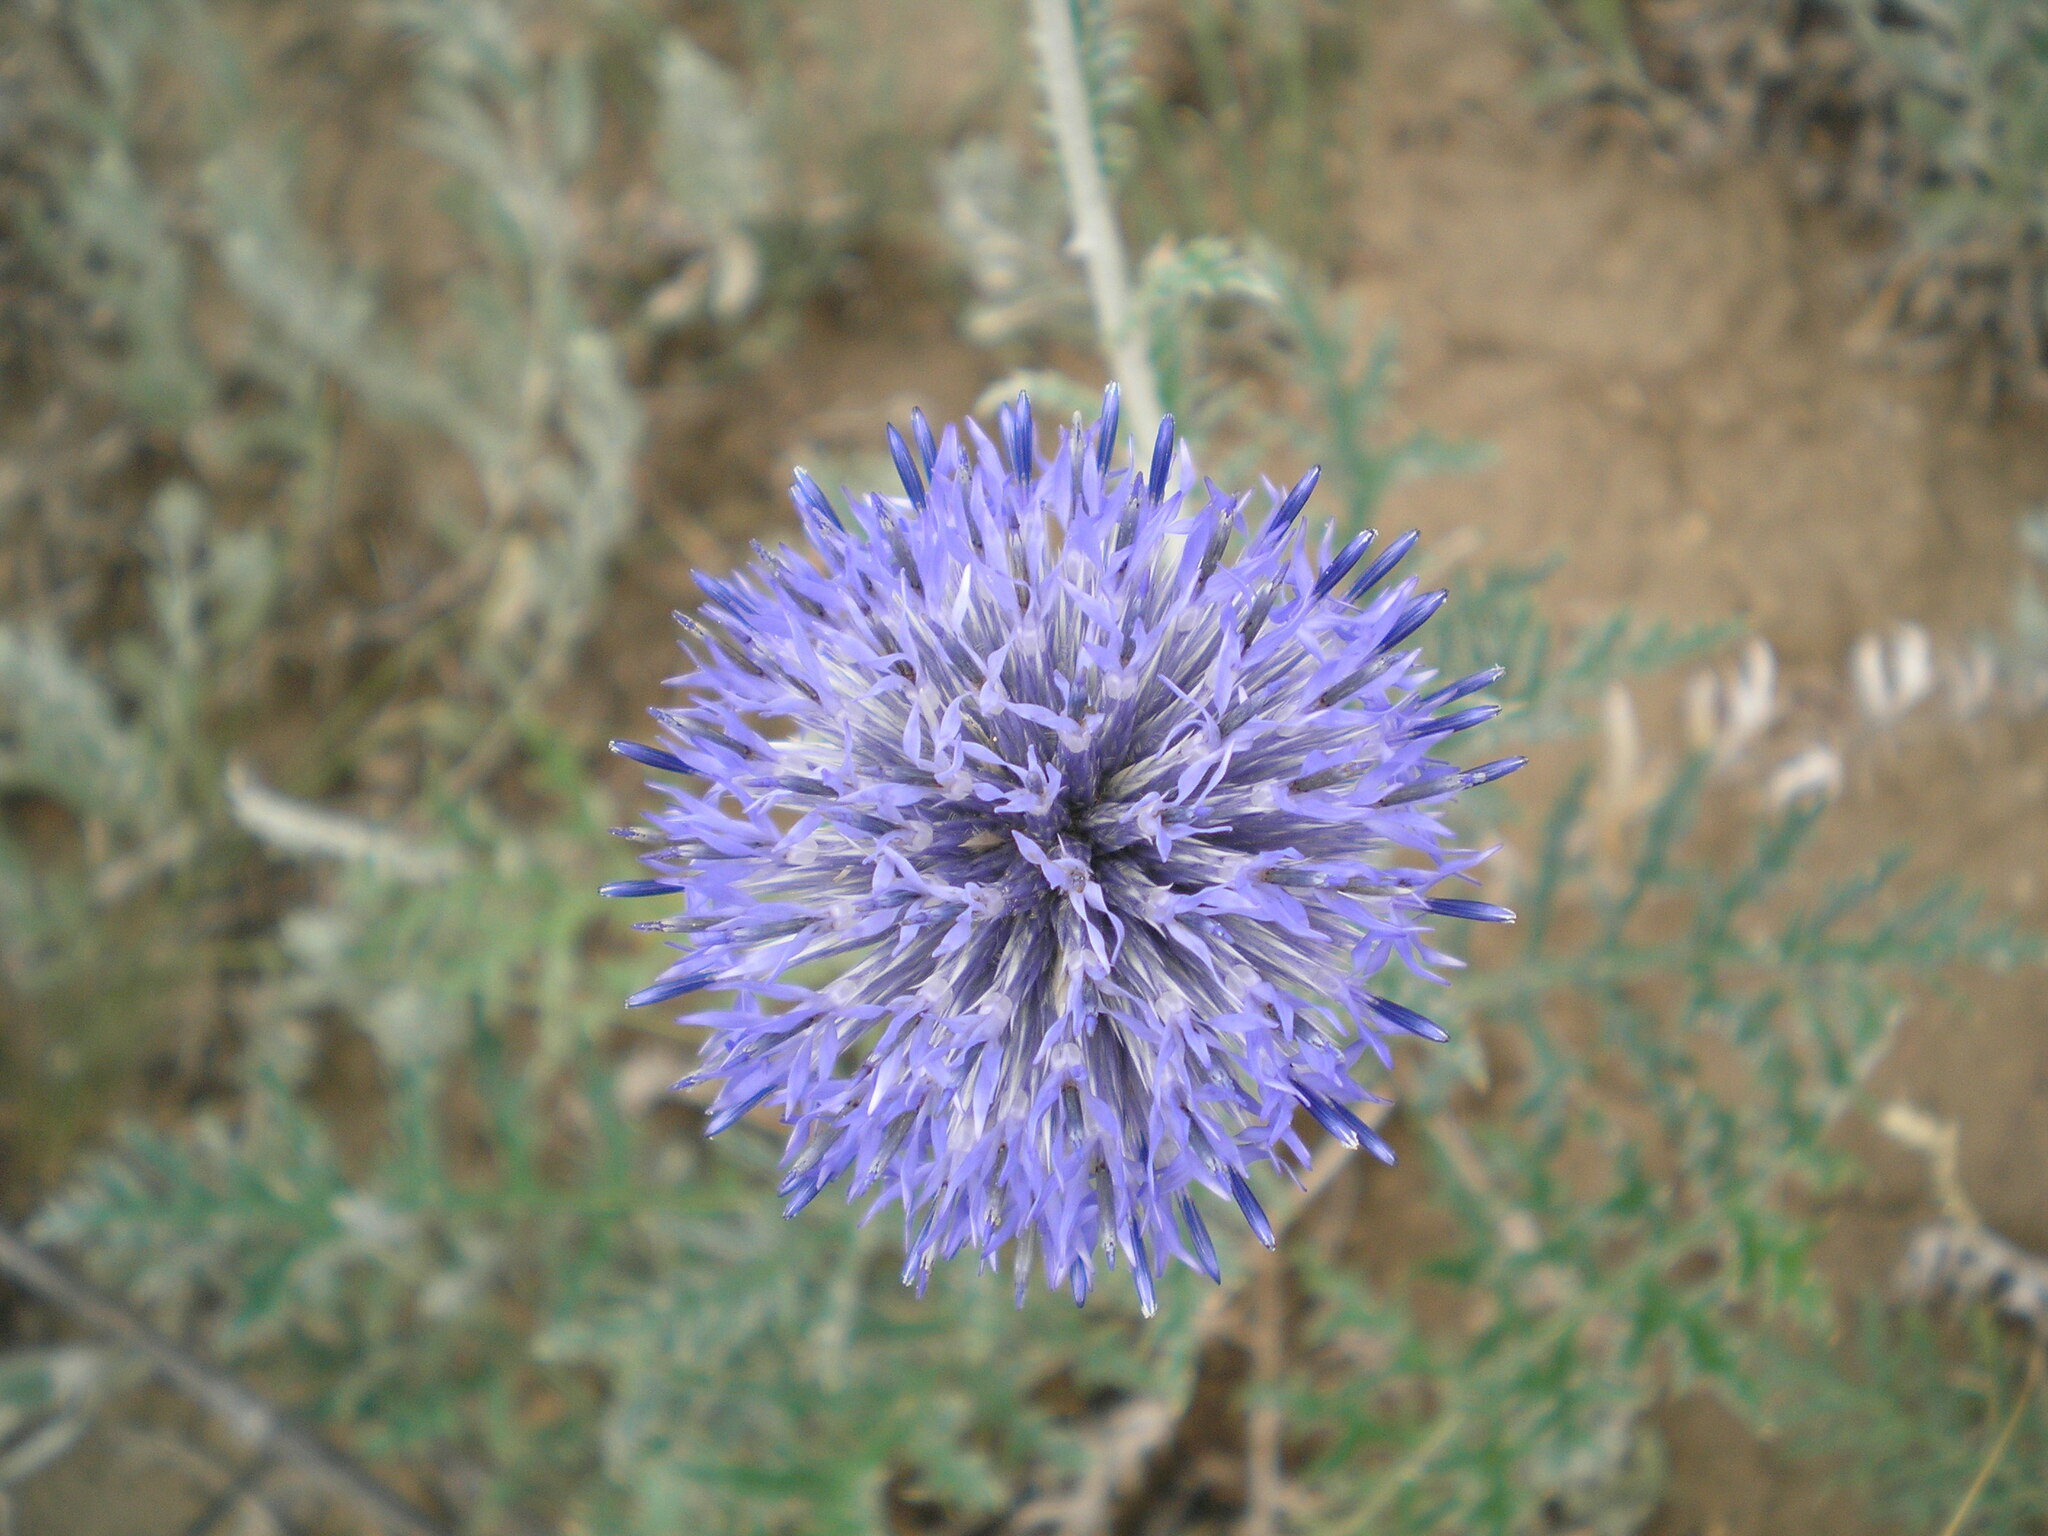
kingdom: Plantae
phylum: Tracheophyta
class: Magnoliopsida
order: Asterales
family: Asteraceae
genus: Echinops
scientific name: Echinops ritro
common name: Globe thistle
